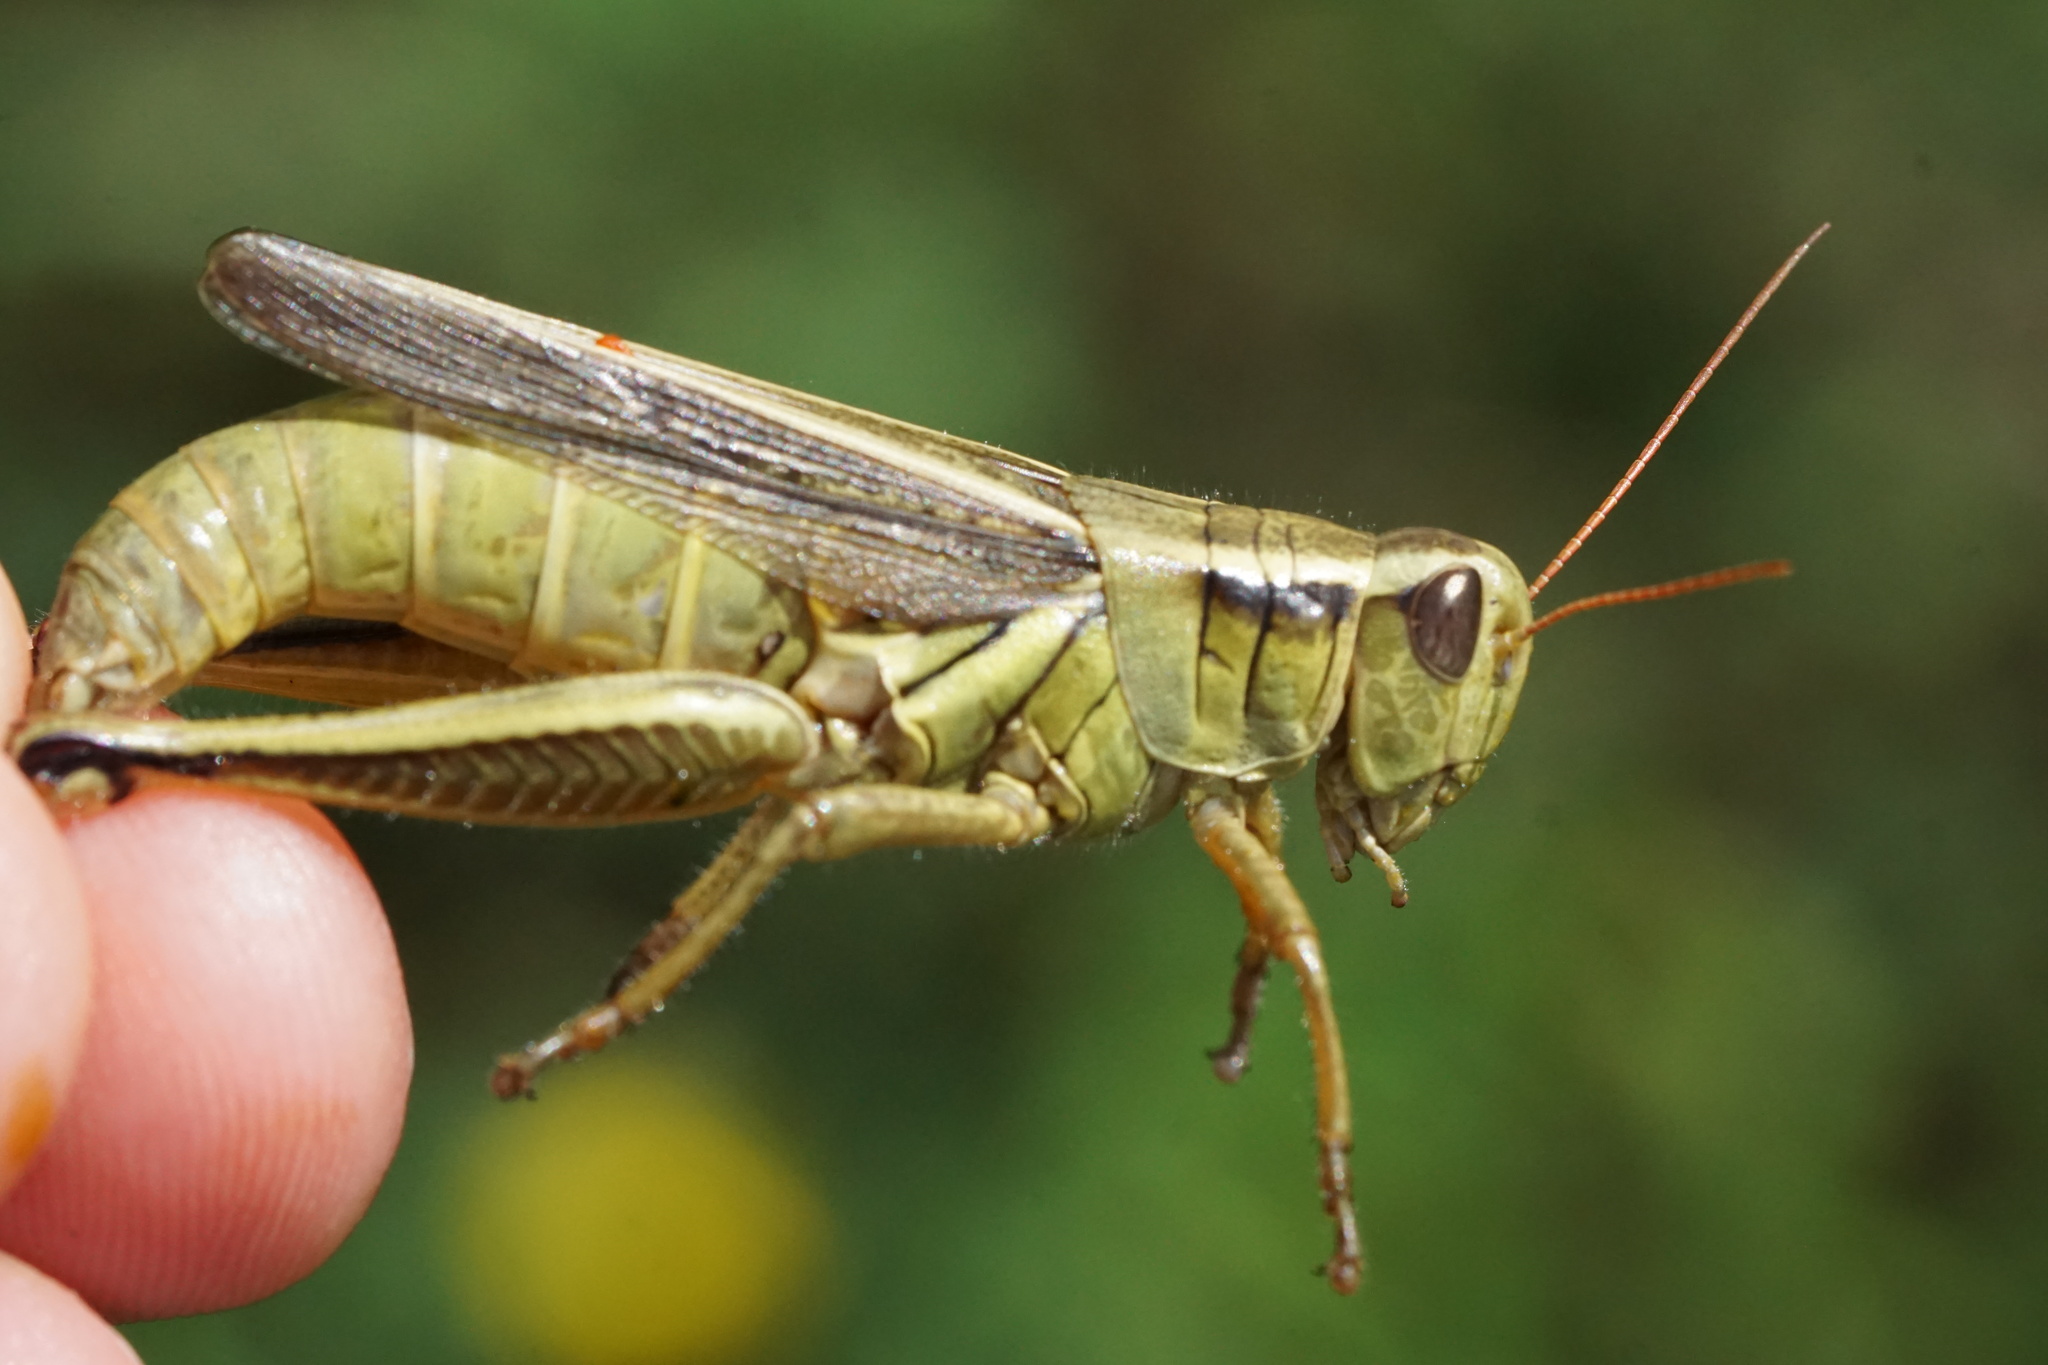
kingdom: Animalia
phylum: Arthropoda
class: Insecta
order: Orthoptera
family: Acrididae
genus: Melanoplus
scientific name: Melanoplus bivittatus
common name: Two-striped grasshopper
